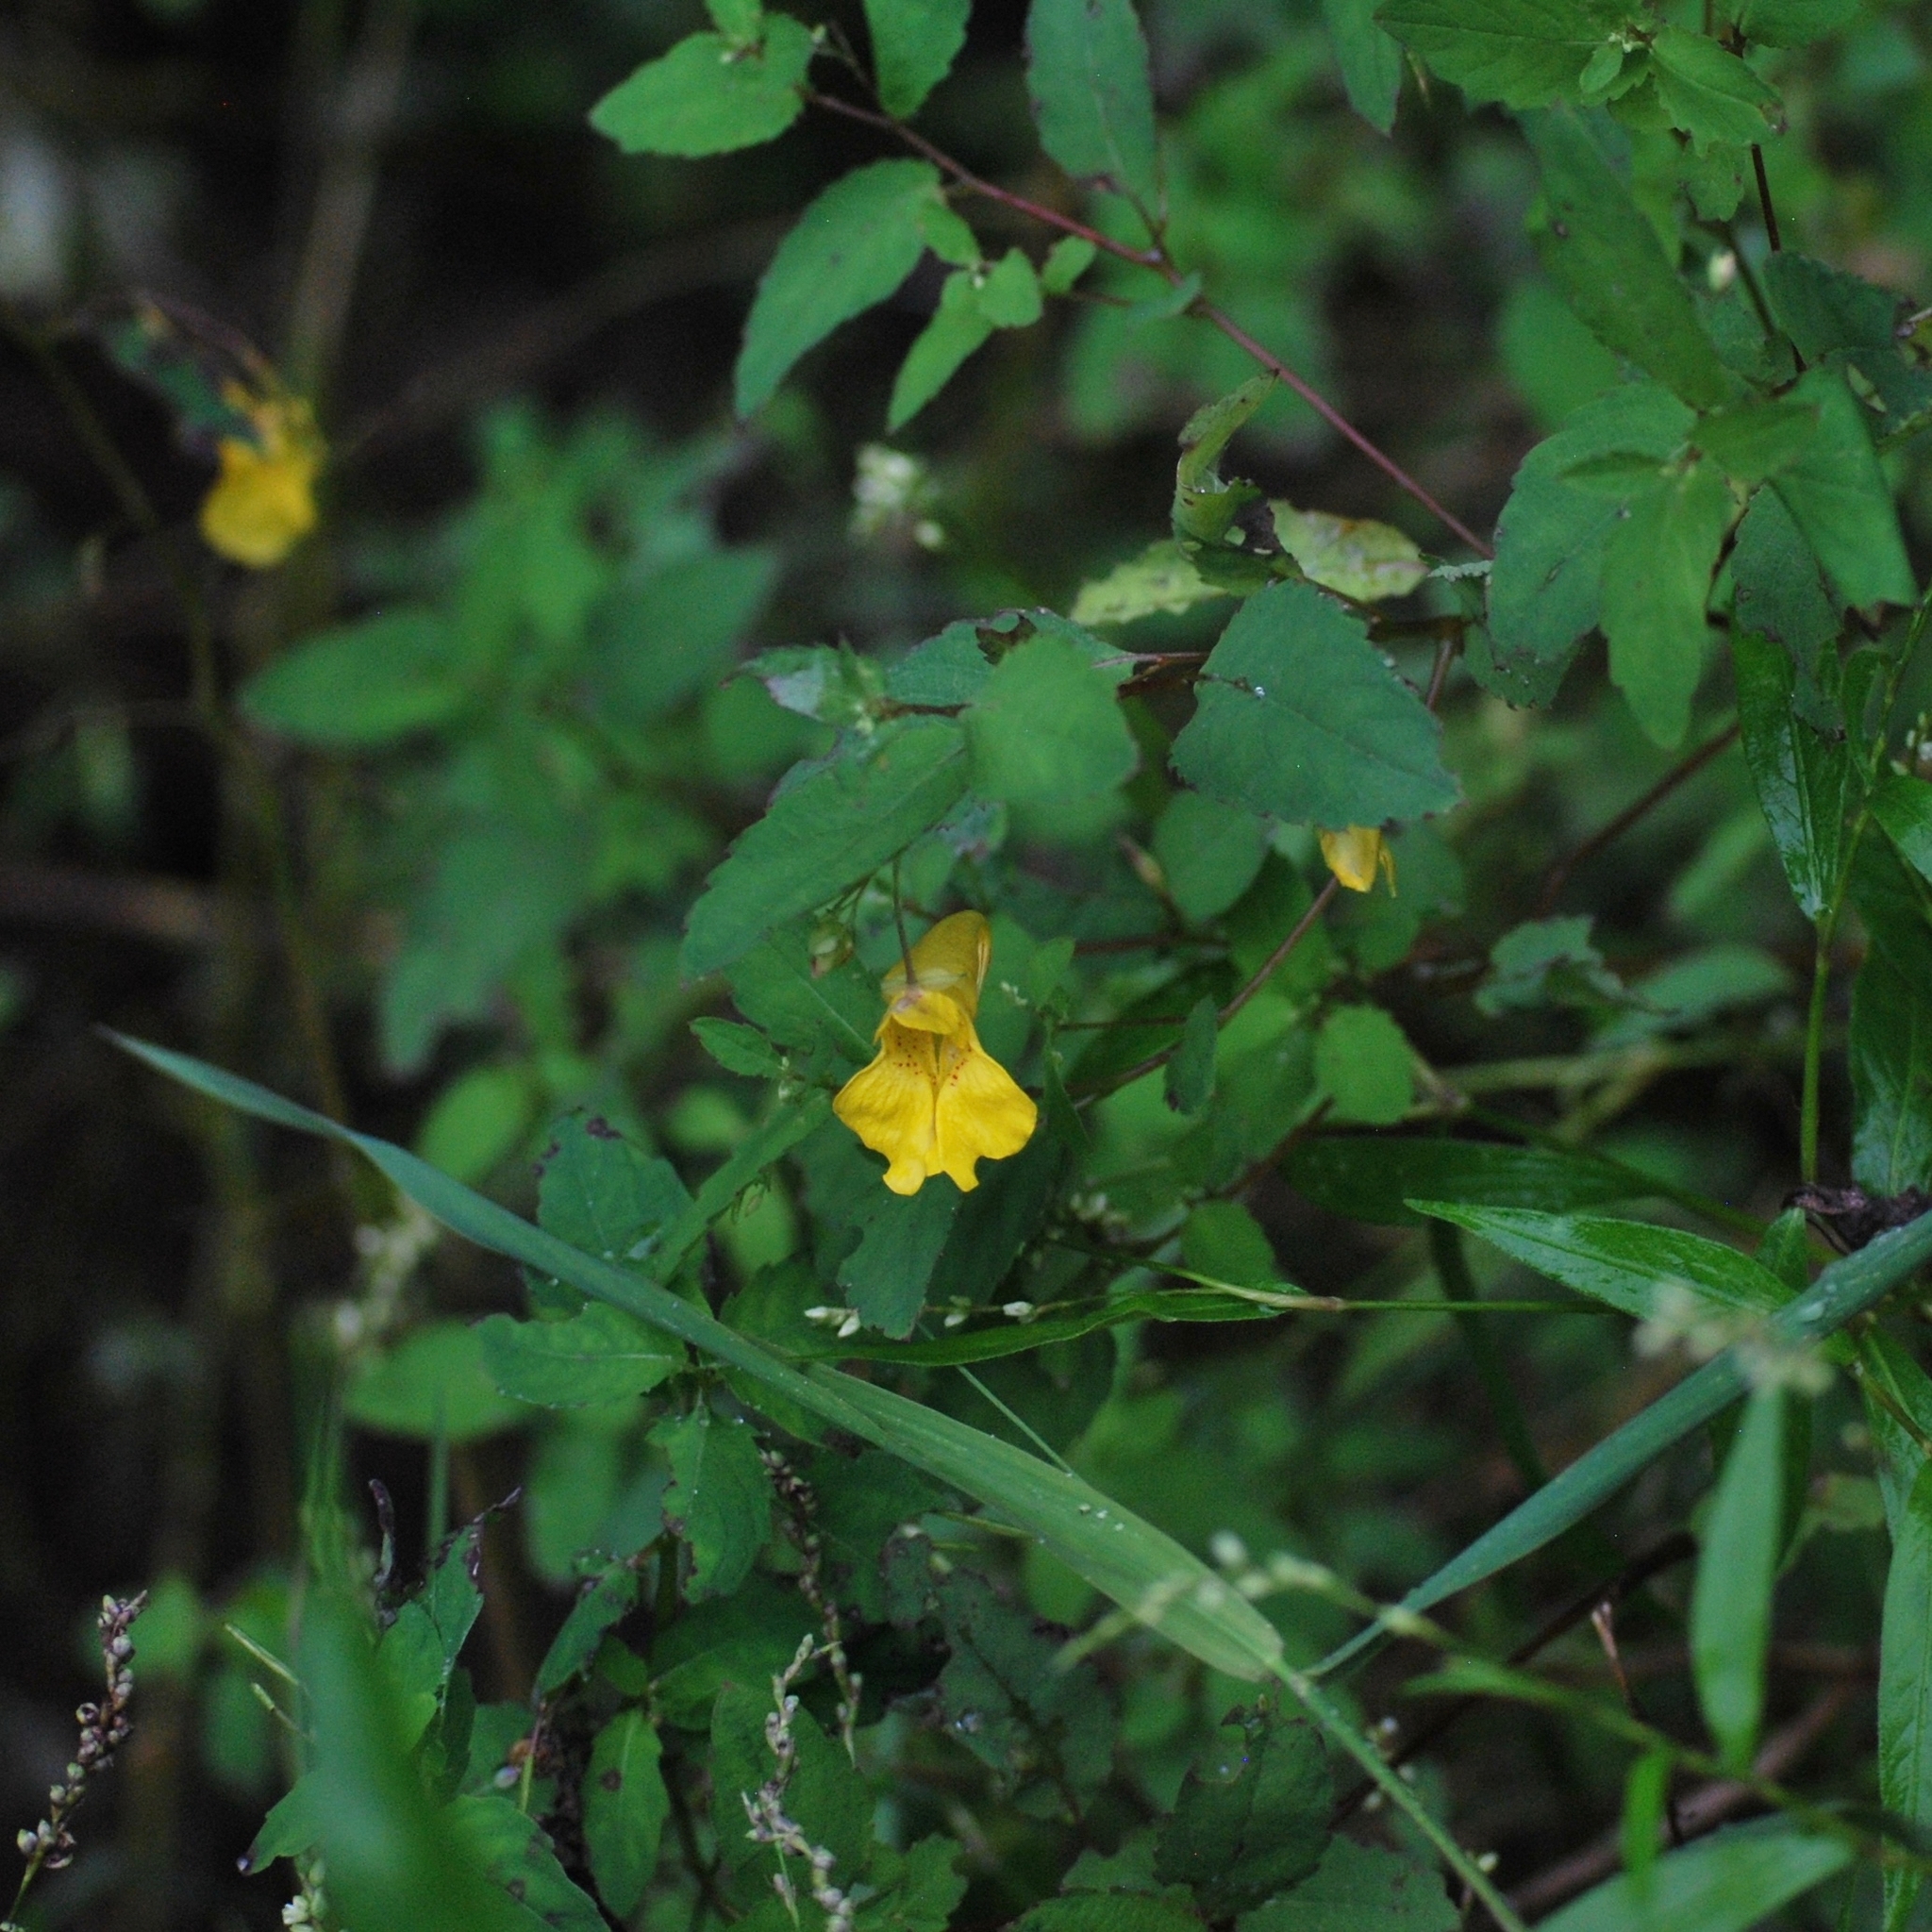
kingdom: Plantae
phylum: Tracheophyta
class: Magnoliopsida
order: Ericales
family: Balsaminaceae
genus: Impatiens
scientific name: Impatiens noli-tangere
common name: Touch-me-not balsam
